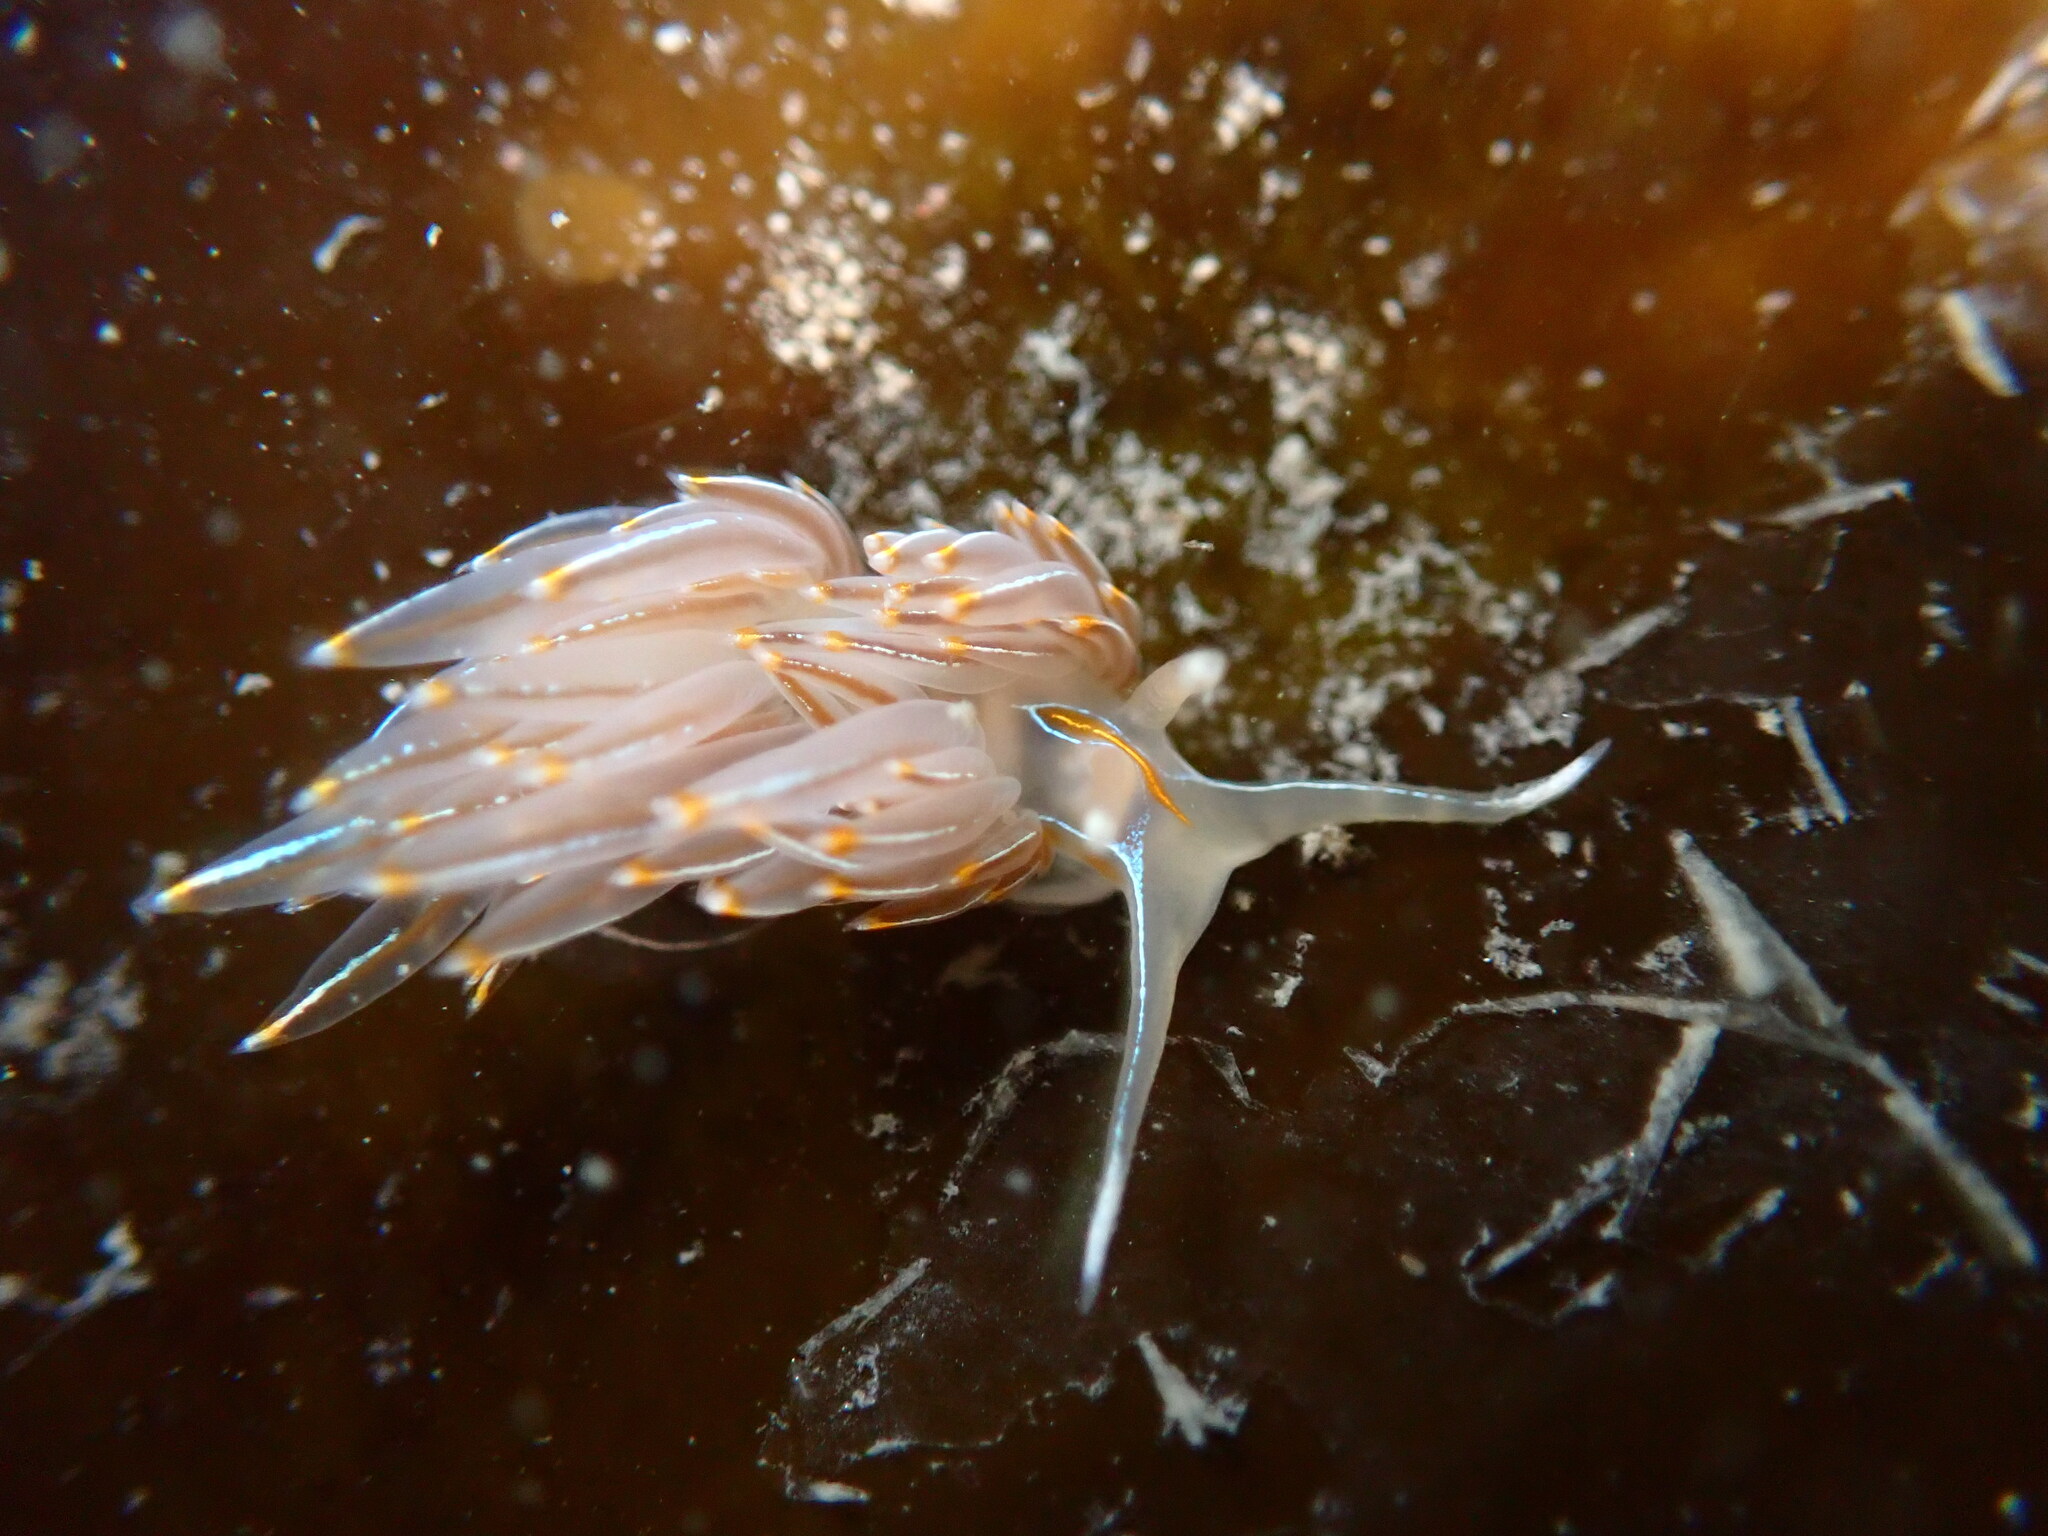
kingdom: Animalia
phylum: Mollusca
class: Gastropoda
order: Nudibranchia
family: Myrrhinidae
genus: Hermissenda
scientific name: Hermissenda crassicornis
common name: Hermissenda
